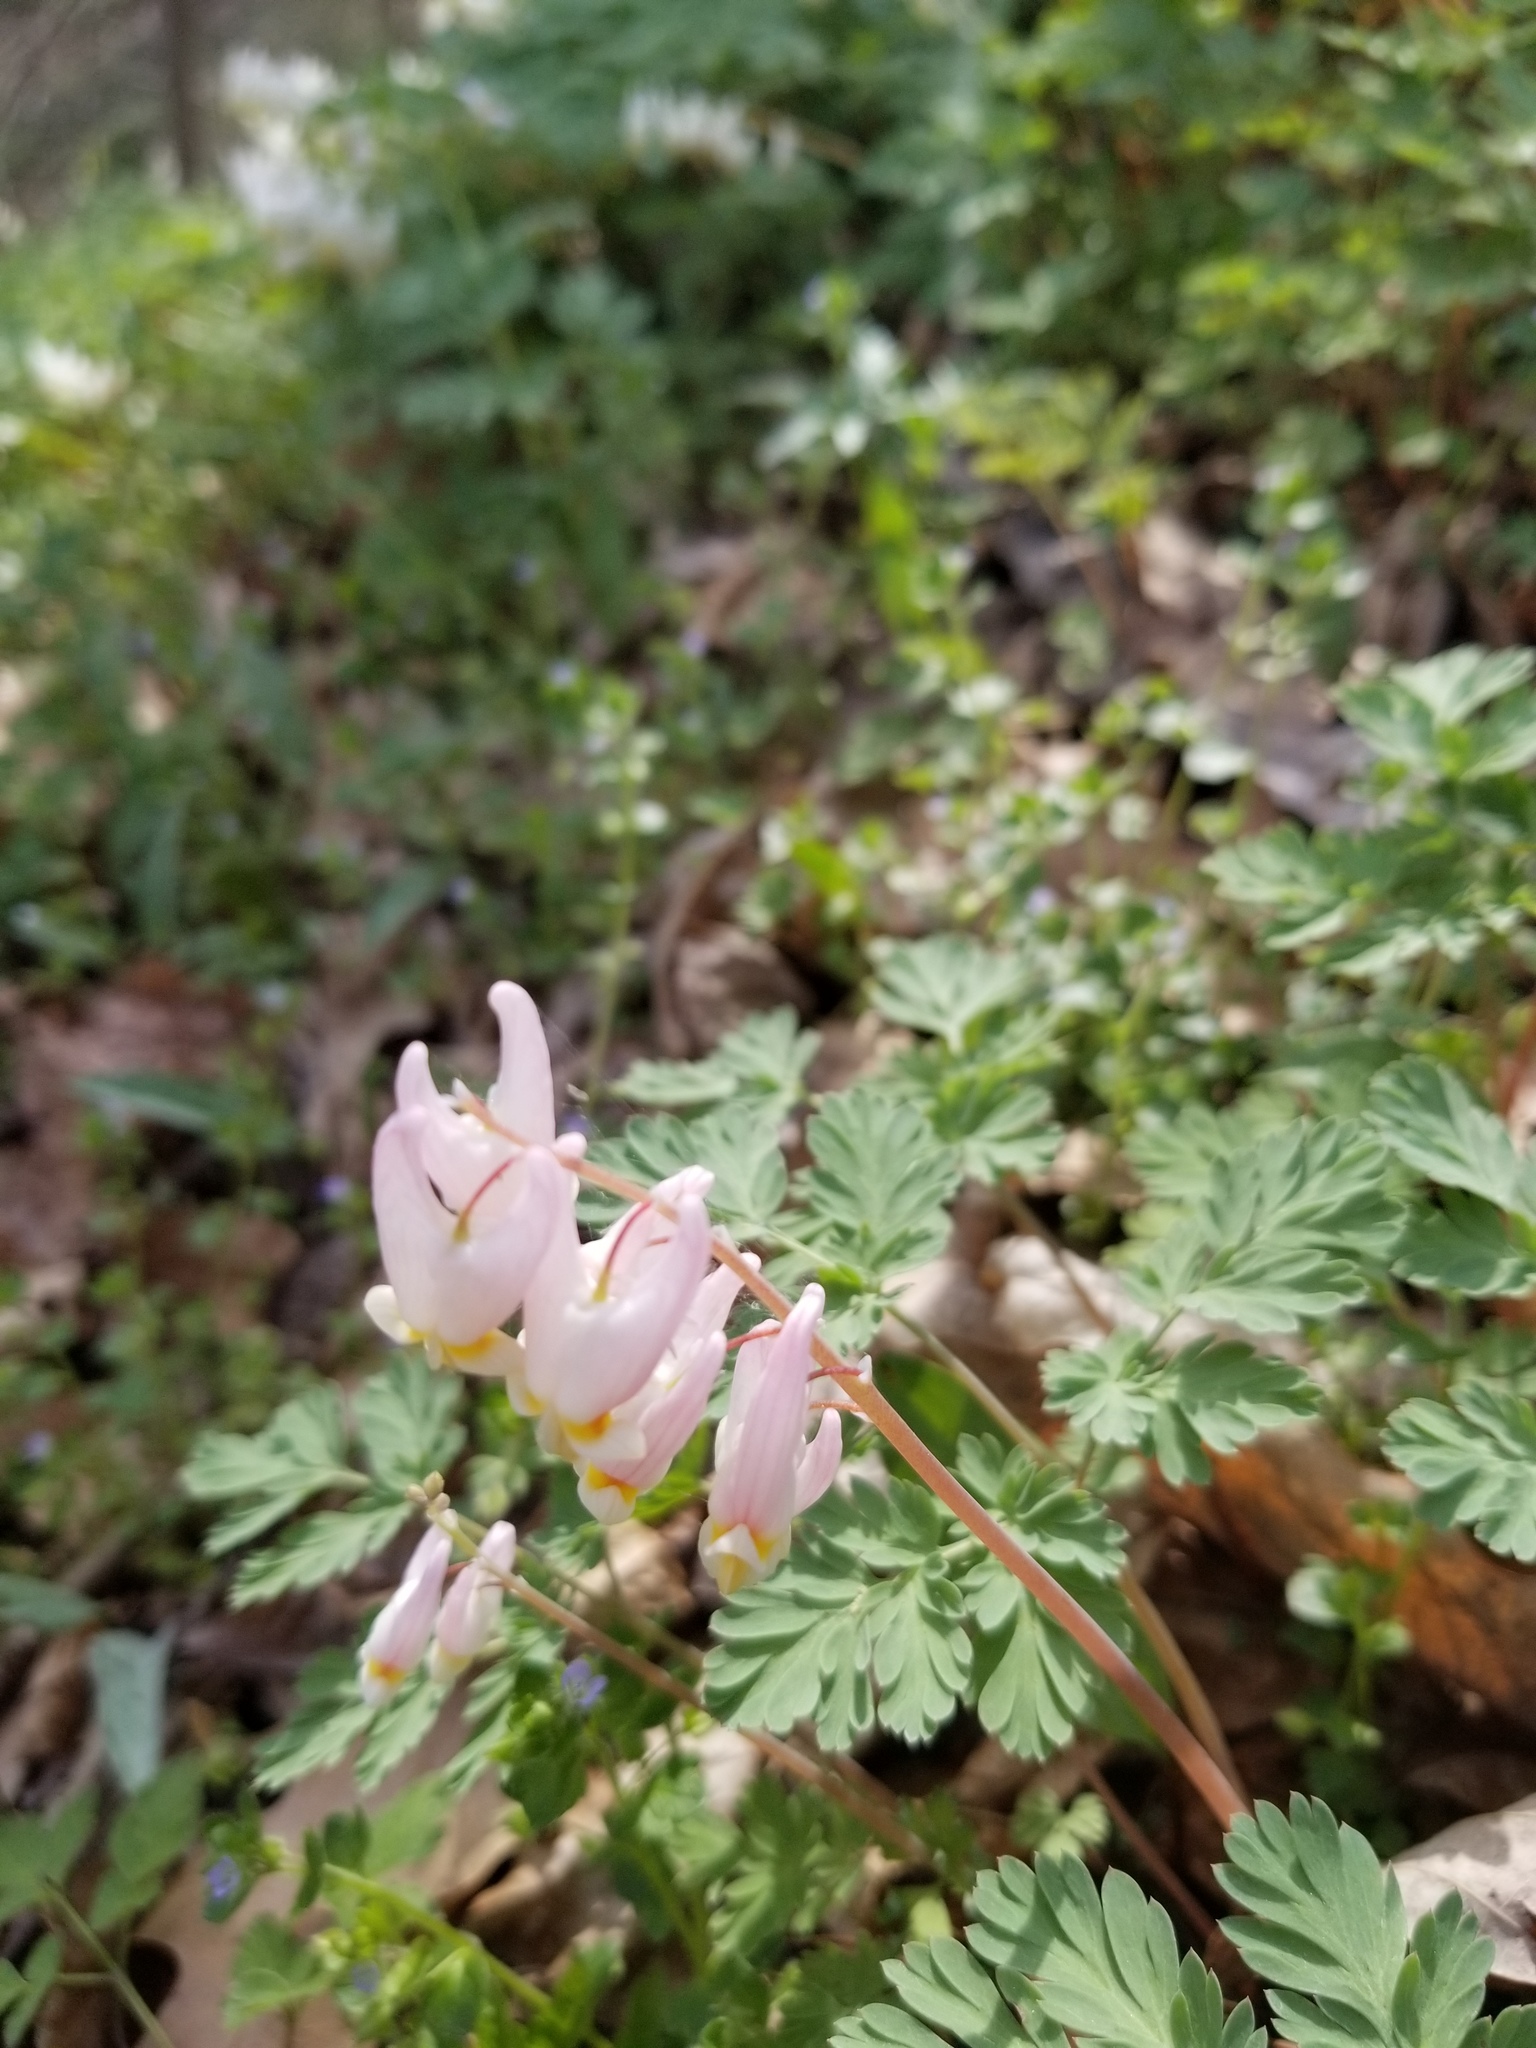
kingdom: Plantae
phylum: Tracheophyta
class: Magnoliopsida
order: Ranunculales
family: Papaveraceae
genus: Dicentra
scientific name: Dicentra cucullaria
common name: Dutchman's breeches
